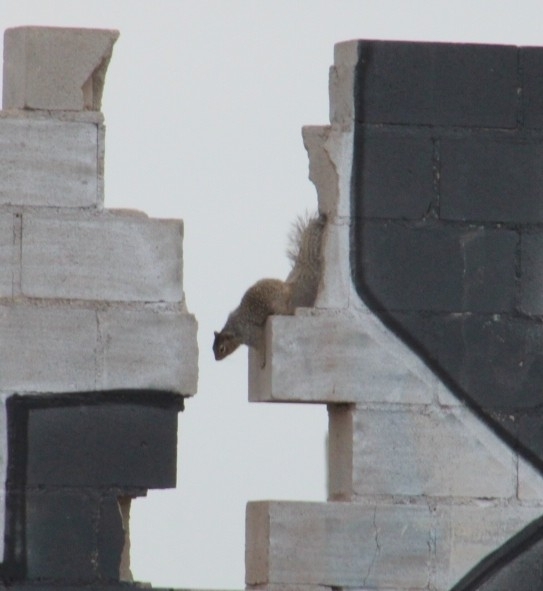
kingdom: Animalia
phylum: Chordata
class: Mammalia
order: Rodentia
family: Sciuridae
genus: Otospermophilus
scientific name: Otospermophilus beecheyi
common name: California ground squirrel
